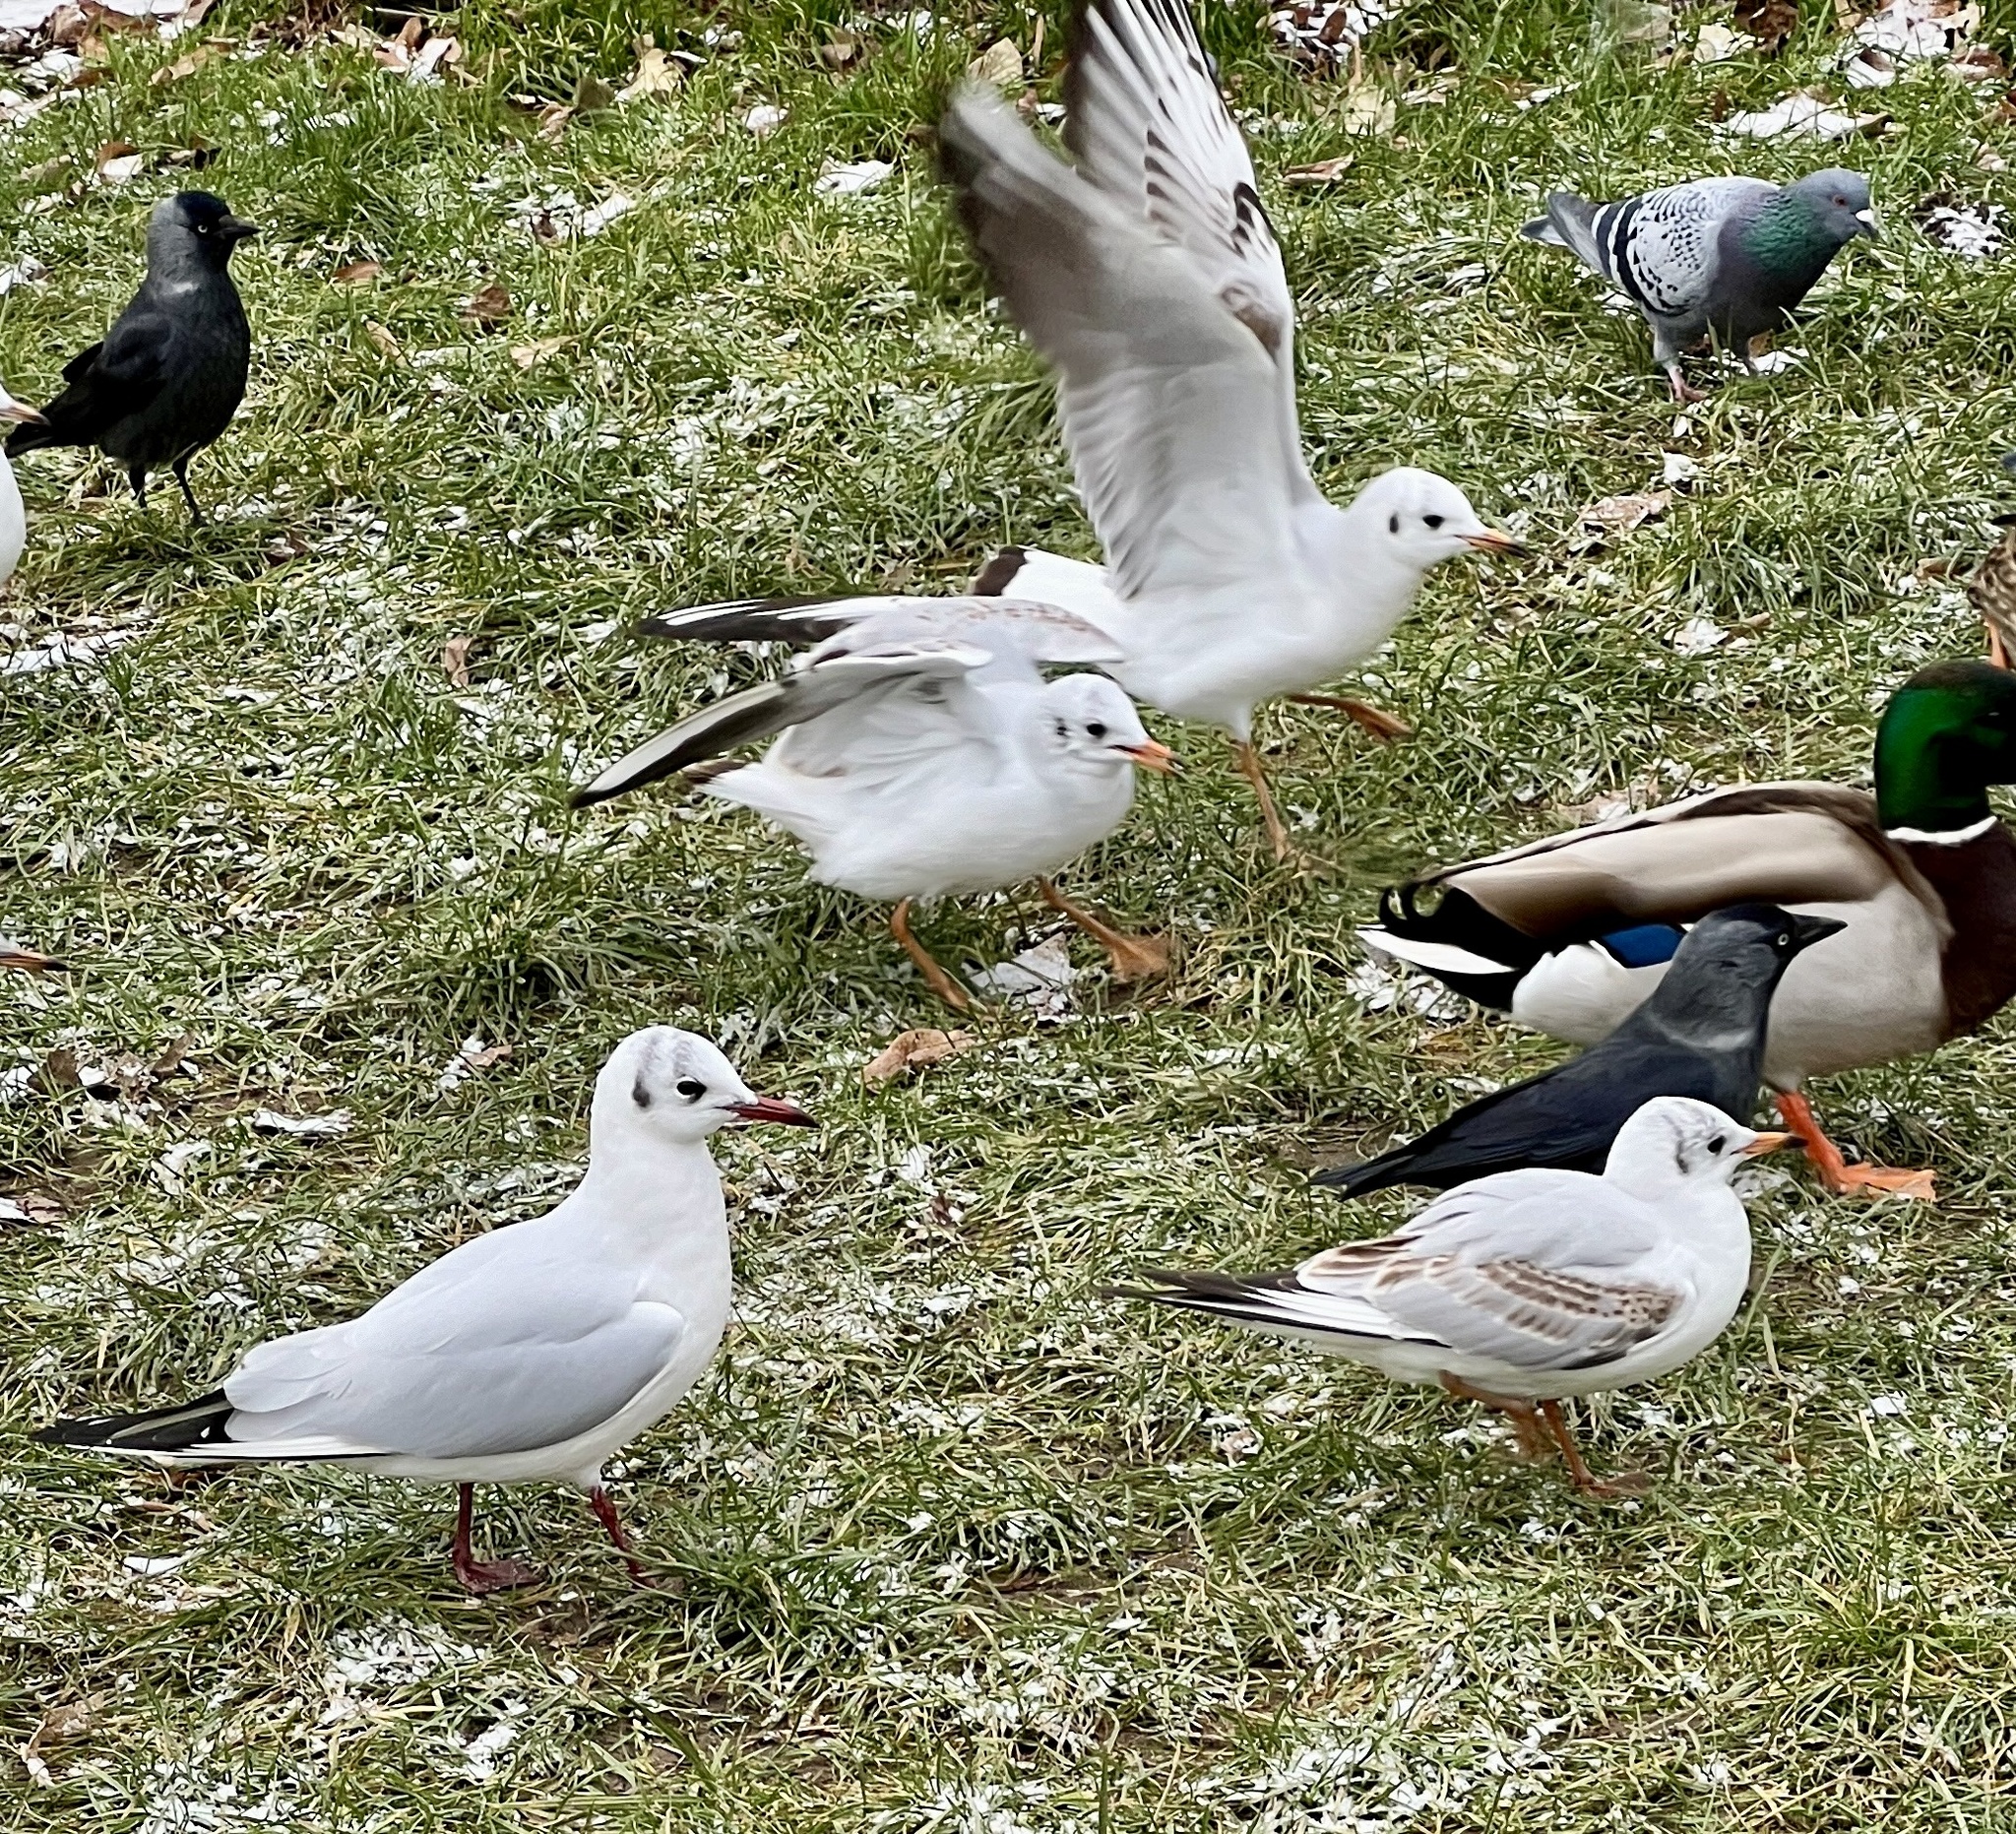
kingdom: Animalia
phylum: Chordata
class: Aves
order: Charadriiformes
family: Laridae
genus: Chroicocephalus
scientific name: Chroicocephalus ridibundus
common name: Black-headed gull
